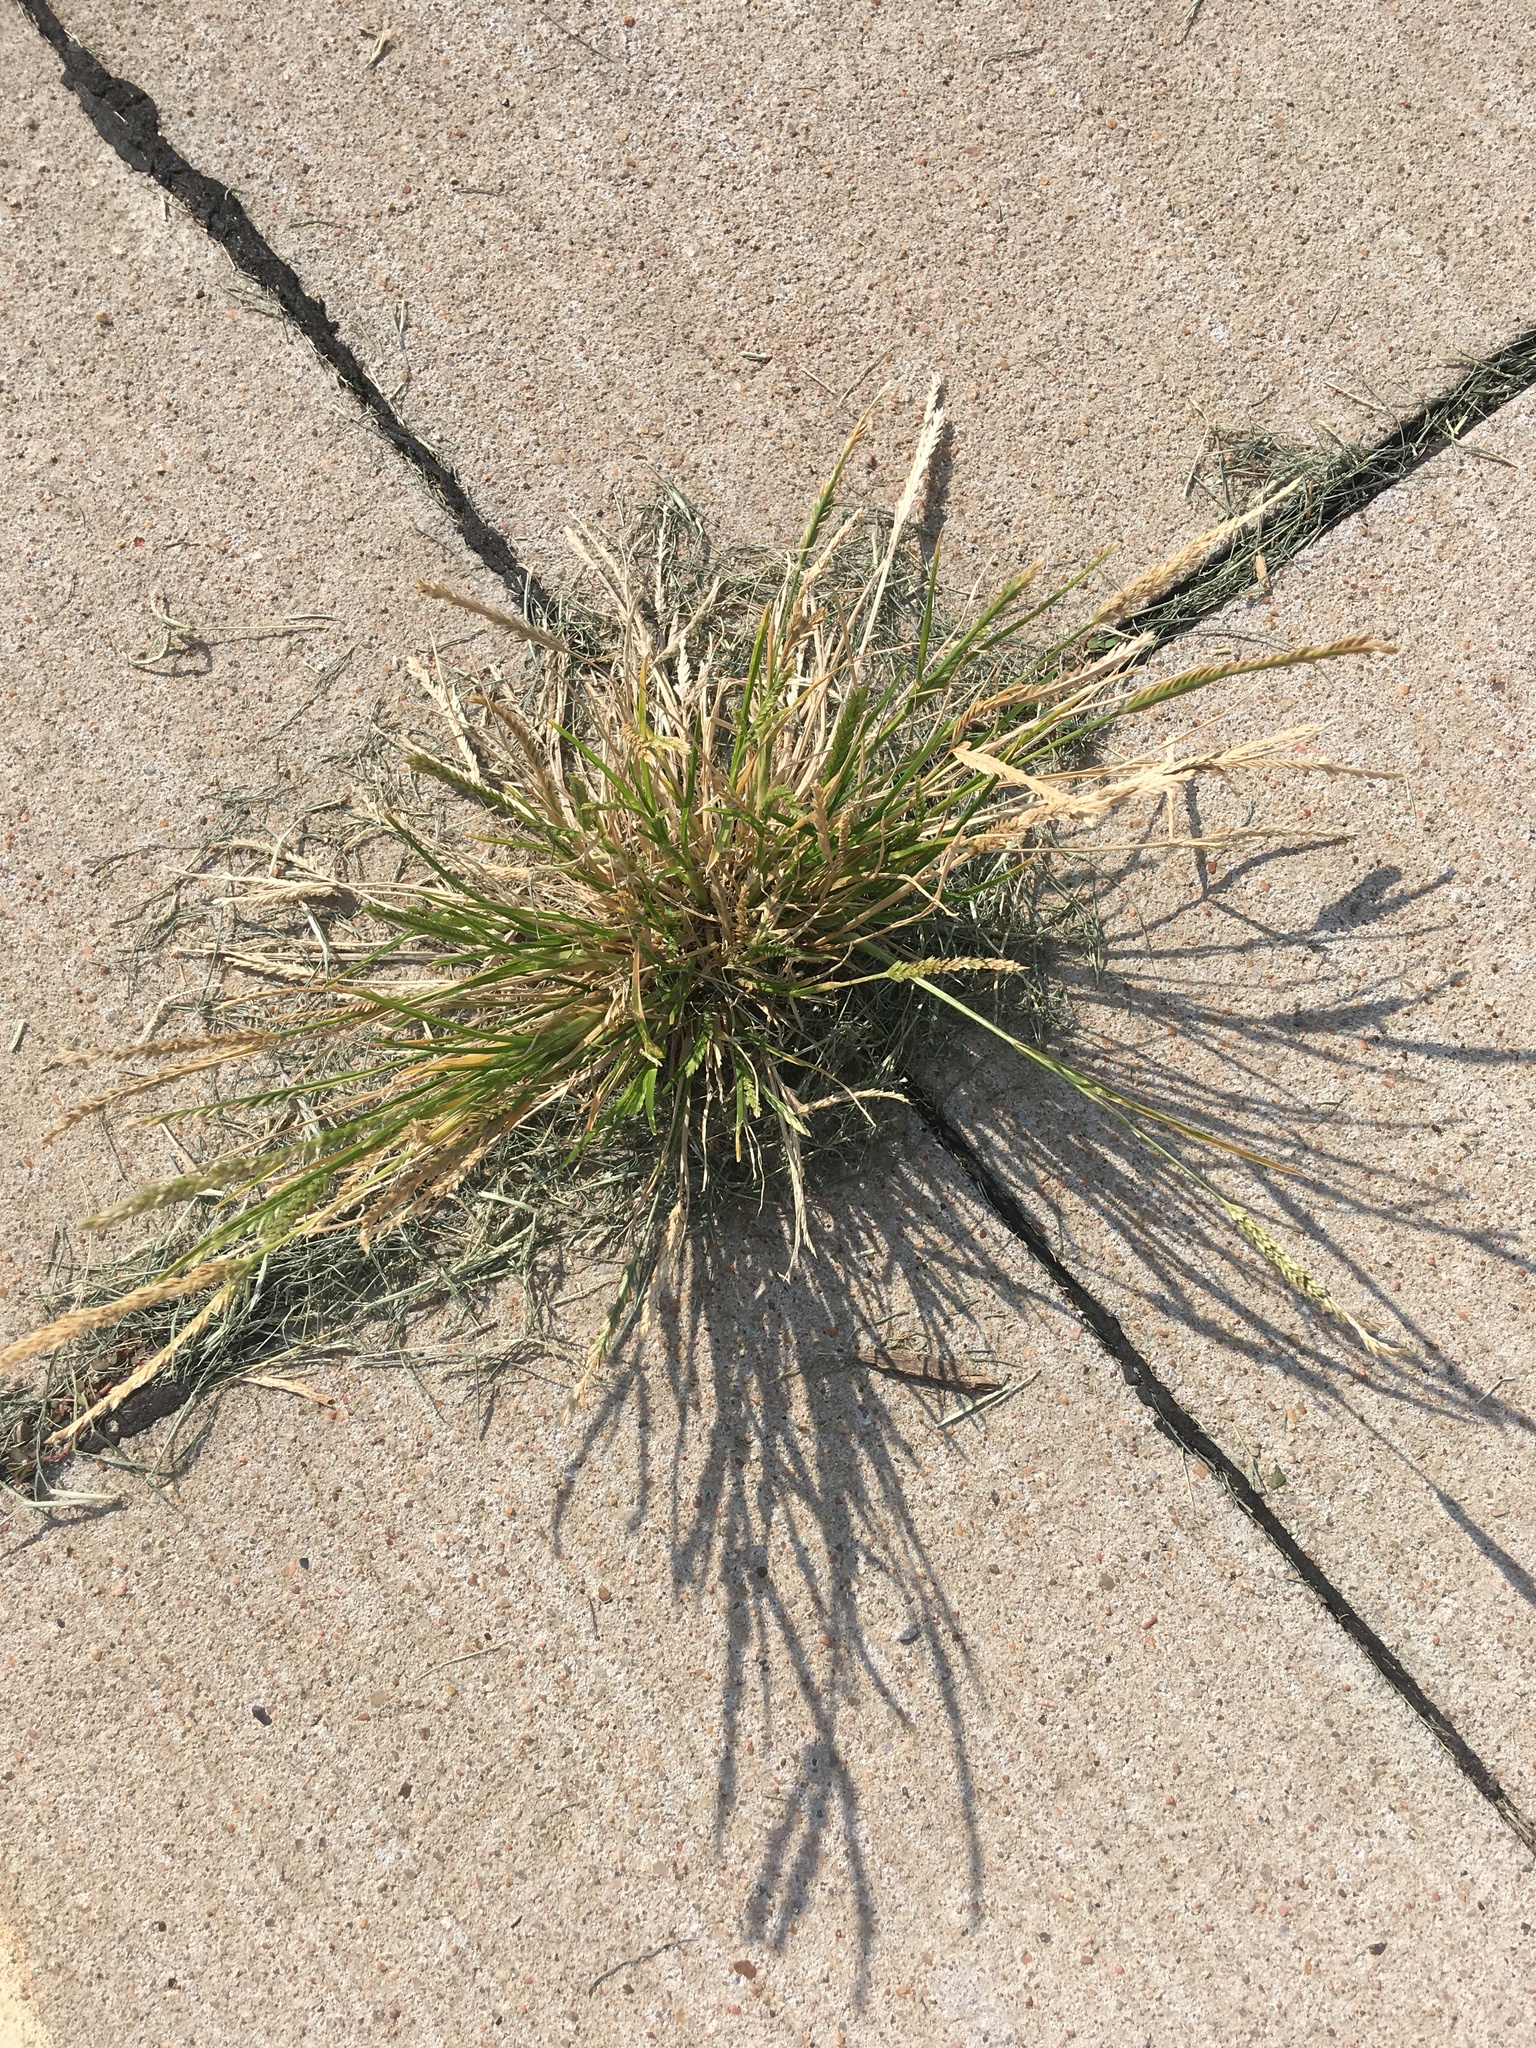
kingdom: Plantae
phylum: Tracheophyta
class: Liliopsida
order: Poales
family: Poaceae
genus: Eleusine
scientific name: Eleusine indica
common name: Yard-grass
